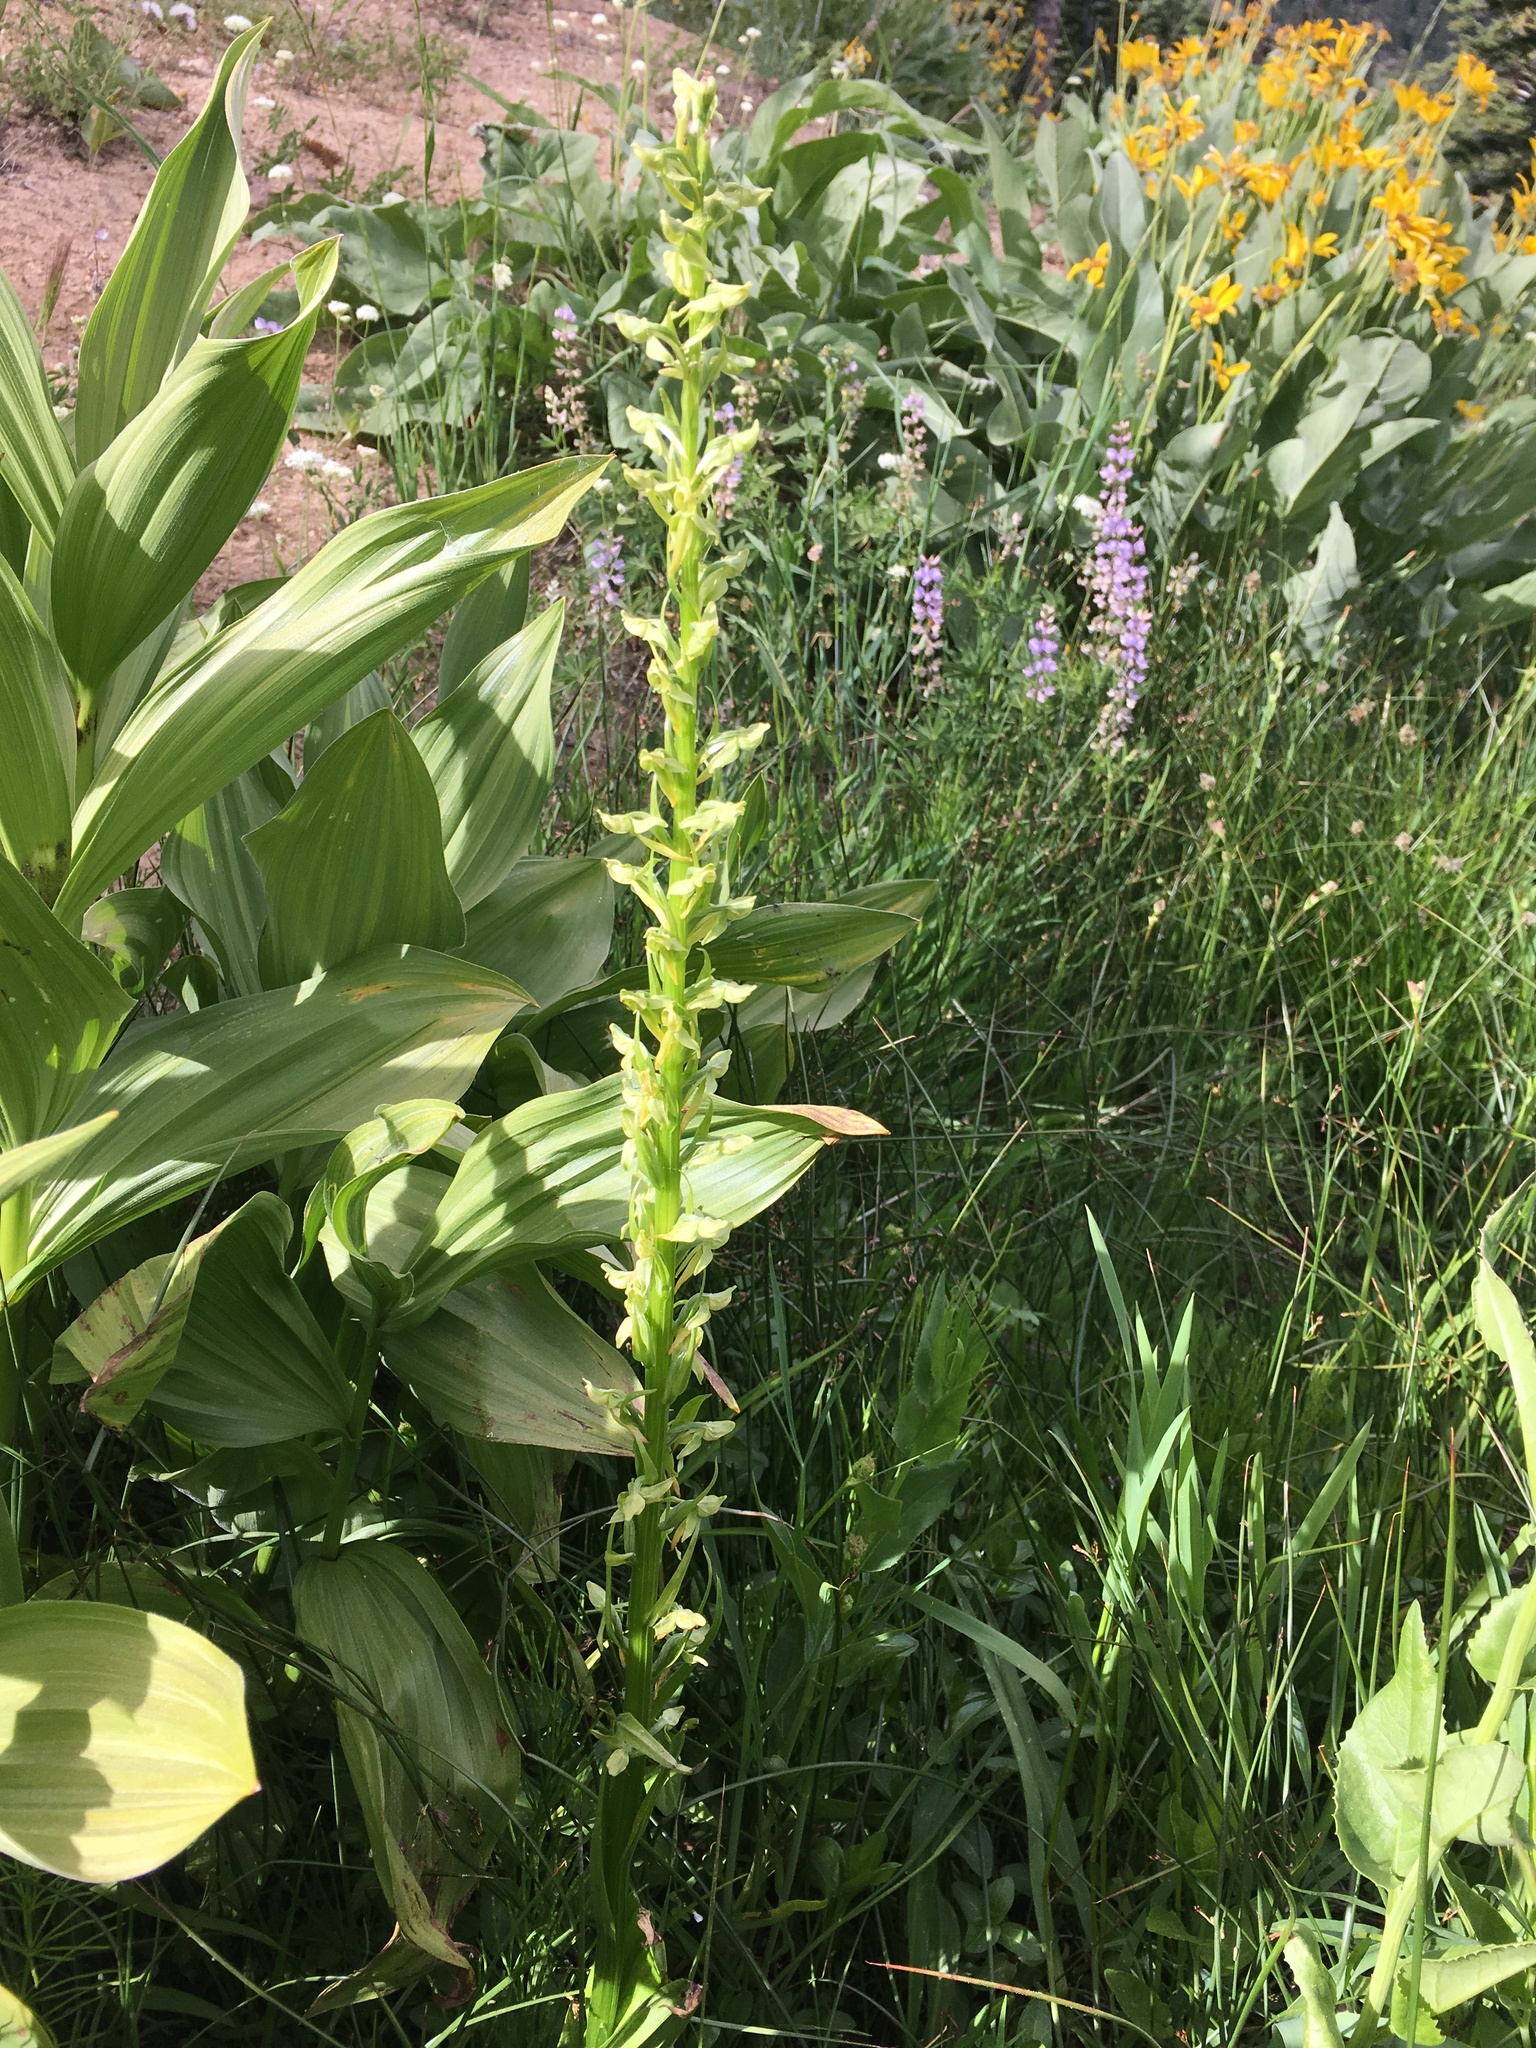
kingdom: Plantae
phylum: Tracheophyta
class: Liliopsida
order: Asparagales
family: Orchidaceae
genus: Platanthera
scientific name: Platanthera sparsiflora
